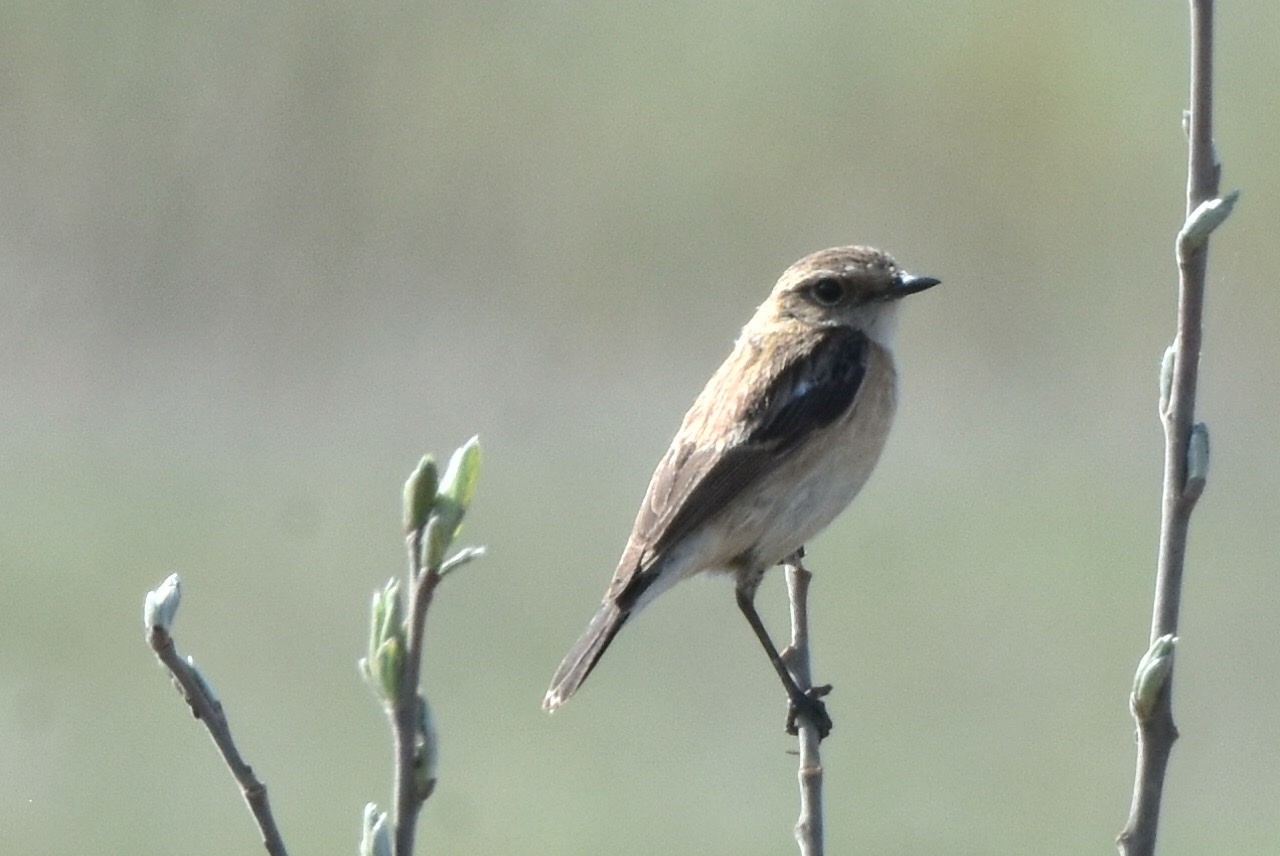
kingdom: Animalia
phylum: Chordata
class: Aves
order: Passeriformes
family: Muscicapidae
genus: Saxicola
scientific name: Saxicola maurus
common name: Siberian stonechat
